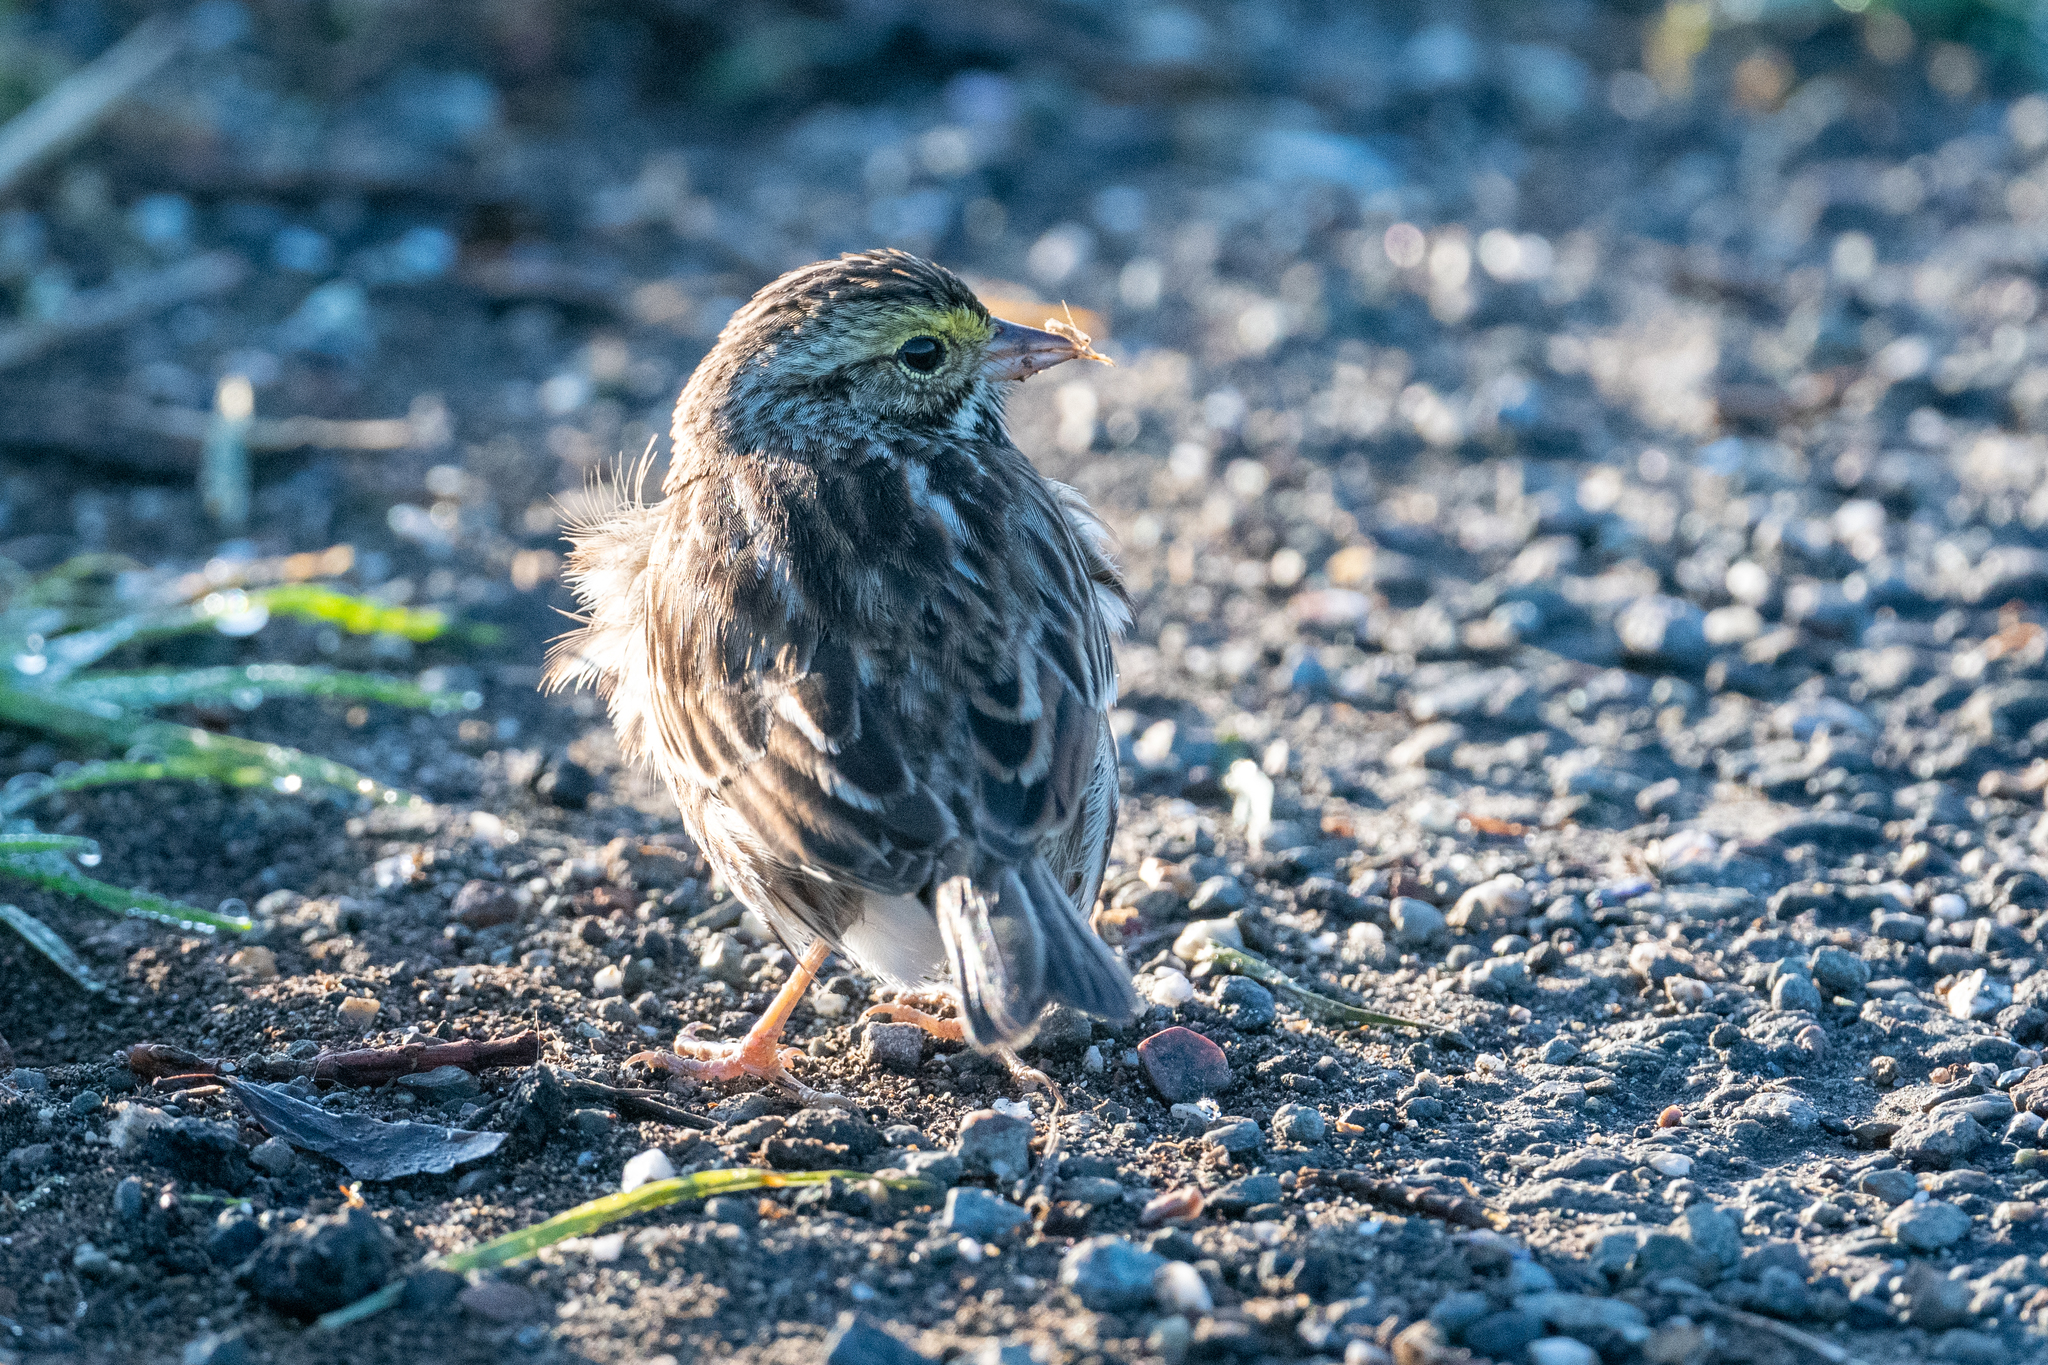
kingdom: Animalia
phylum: Chordata
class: Aves
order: Passeriformes
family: Passerellidae
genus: Passerculus
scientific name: Passerculus sandwichensis
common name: Savannah sparrow
